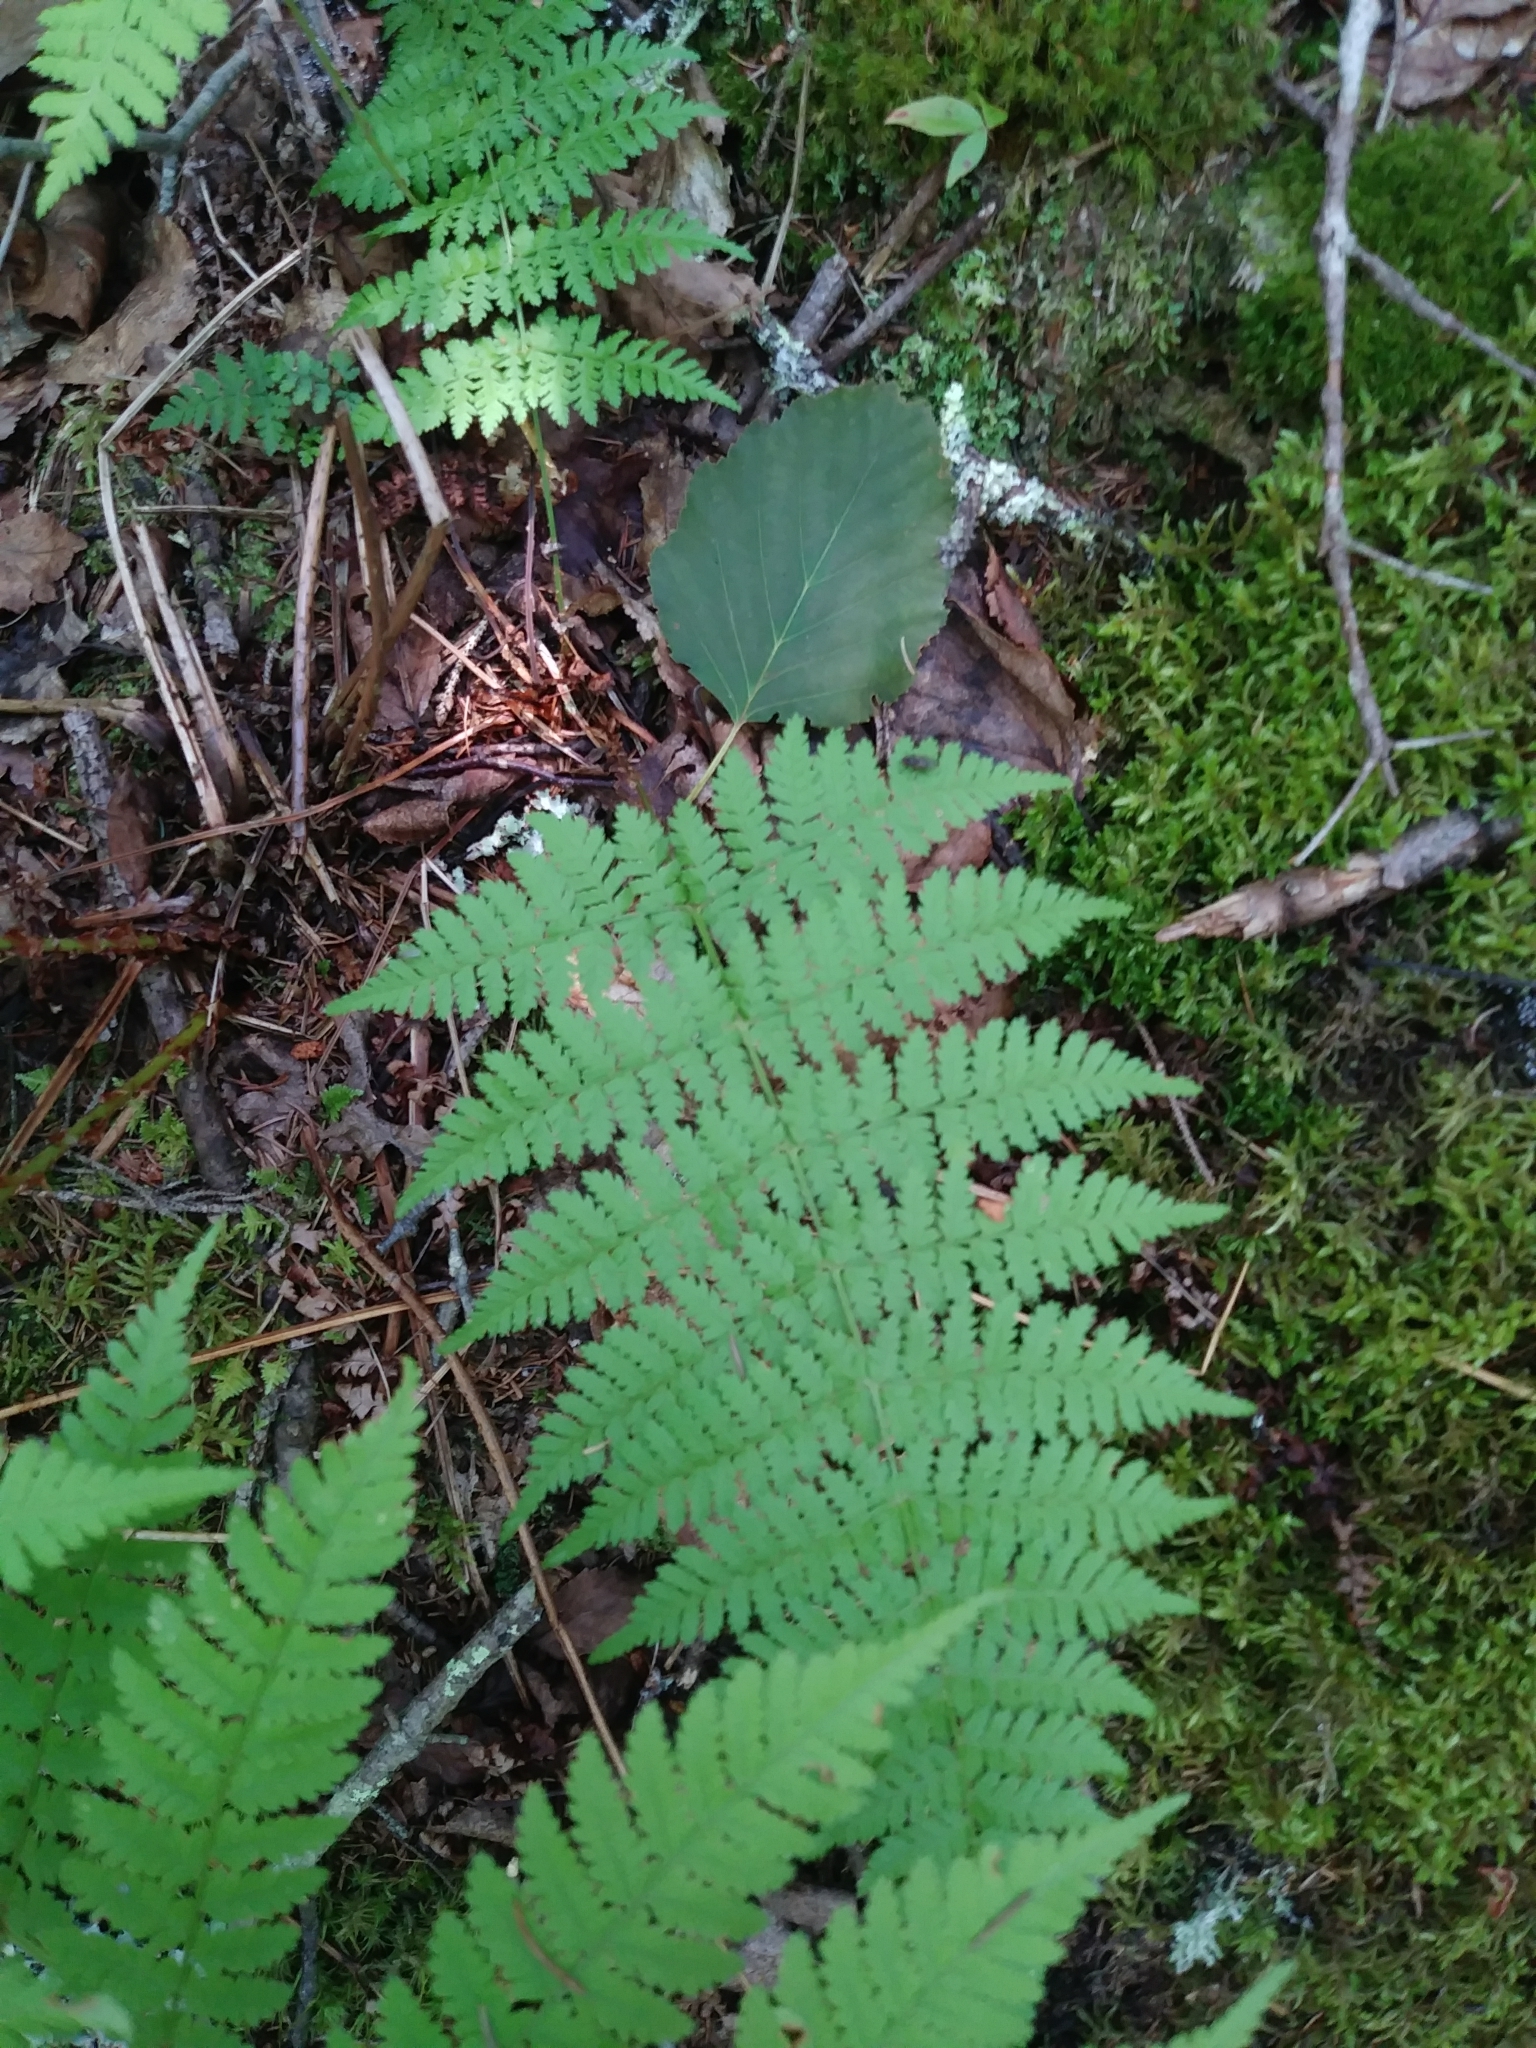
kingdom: Plantae
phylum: Tracheophyta
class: Polypodiopsida
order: Polypodiales
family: Dryopteridaceae
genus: Dryopteris
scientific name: Dryopteris intermedia
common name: Evergreen wood fern
